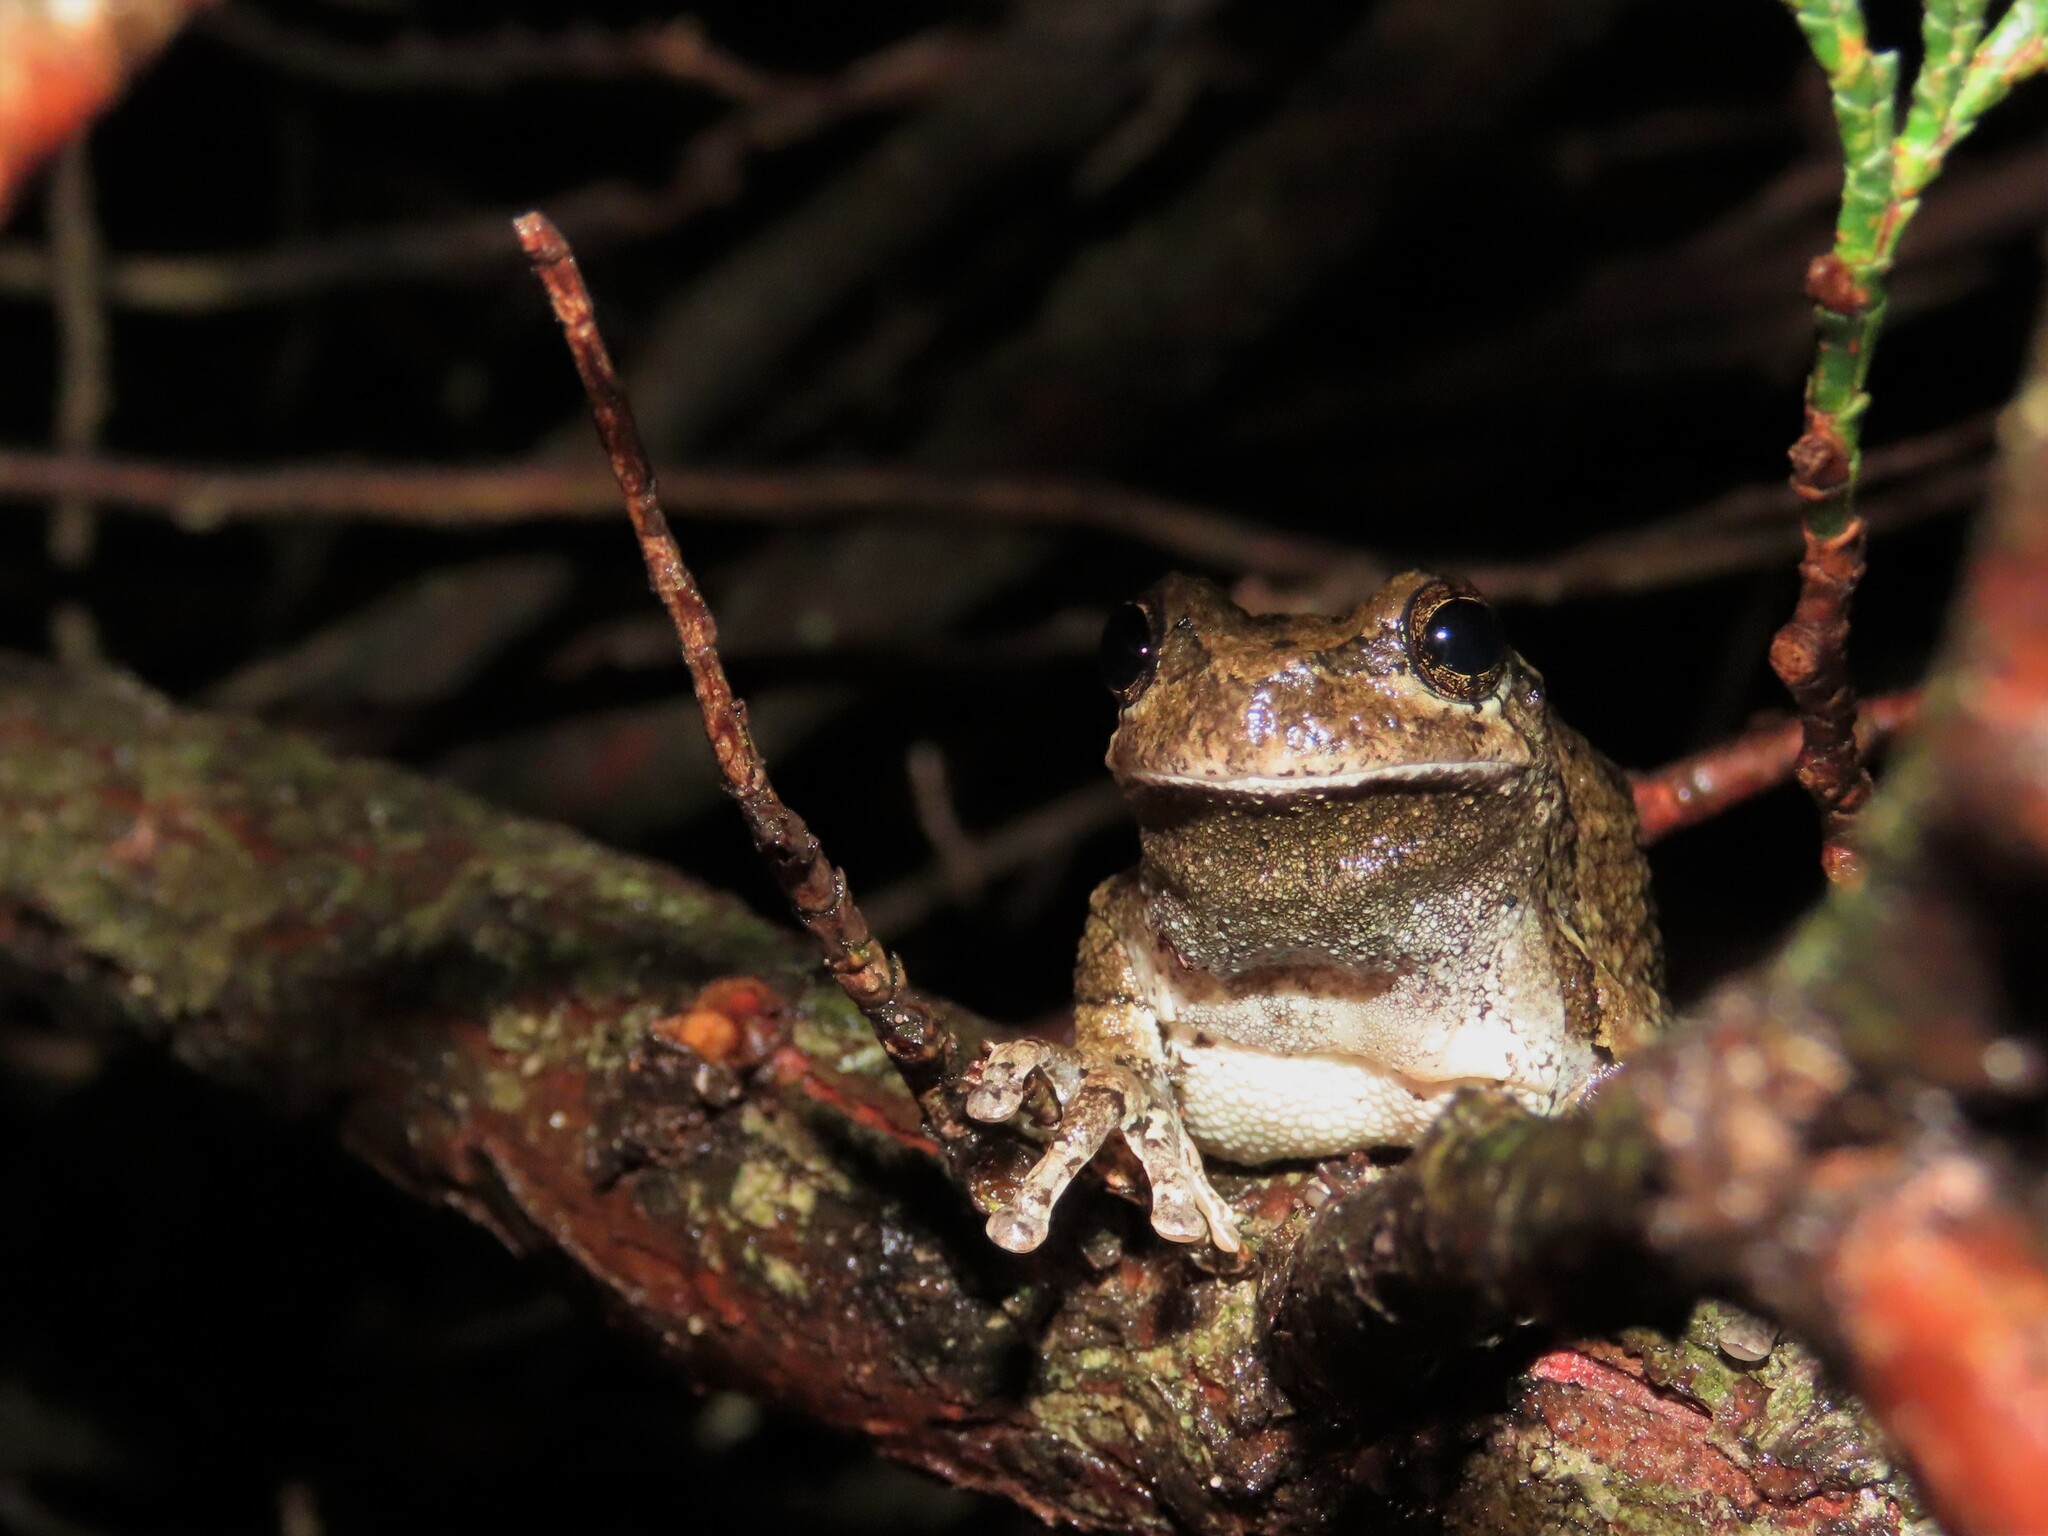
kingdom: Animalia
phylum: Chordata
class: Amphibia
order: Anura
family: Hylidae
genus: Dryophytes
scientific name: Dryophytes versicolor
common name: Gray treefrog
